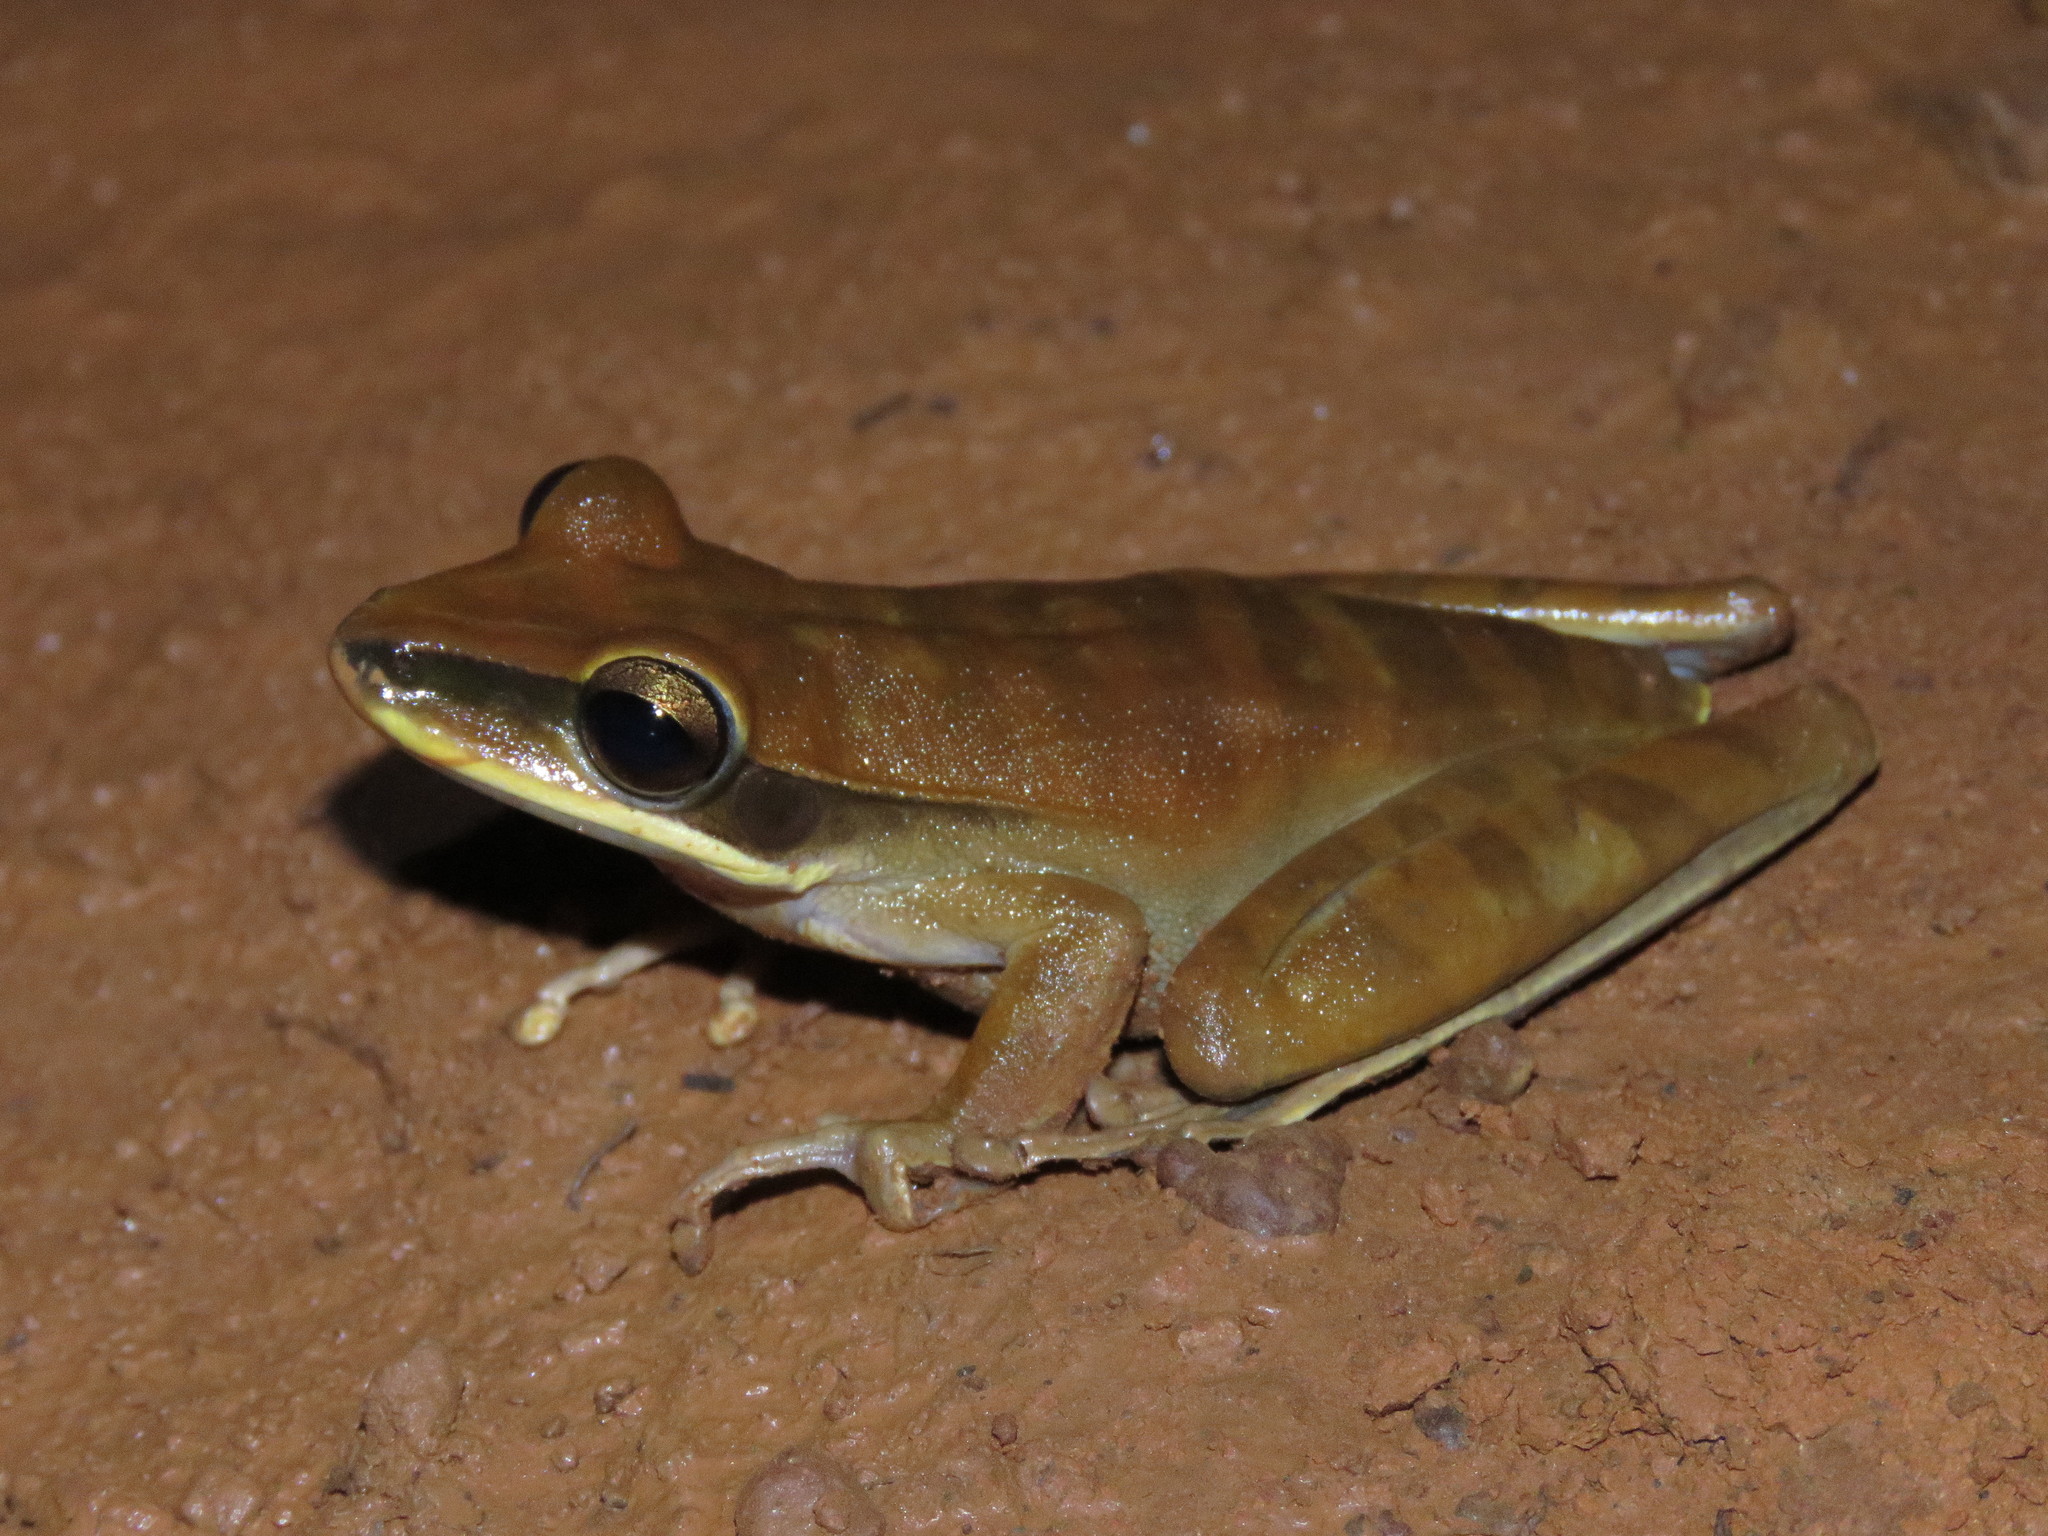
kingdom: Animalia
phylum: Chordata
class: Amphibia
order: Anura
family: Hylidae
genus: Boana
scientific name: Boana lanciformis
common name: Rana lanceolada commún
